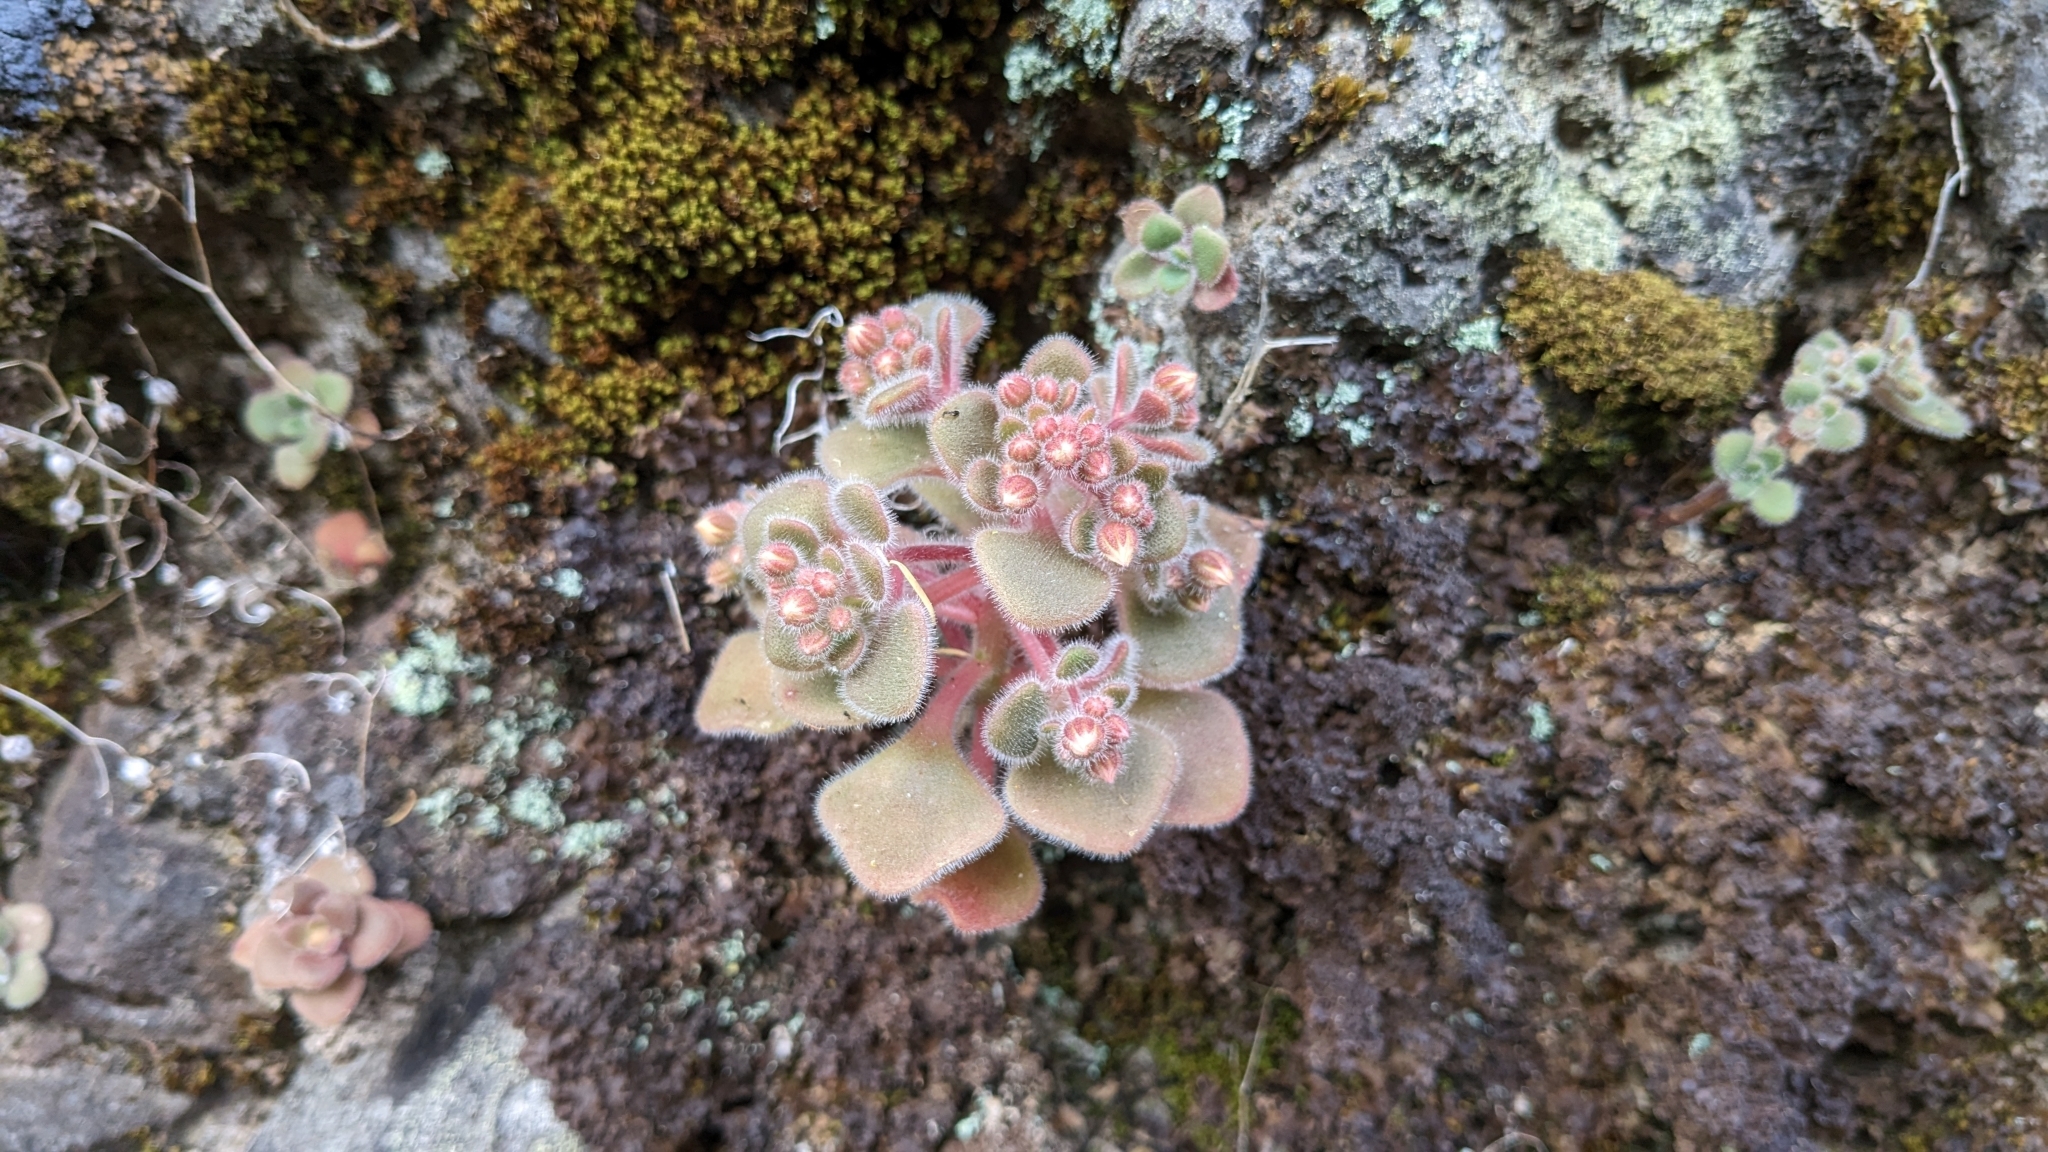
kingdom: Plantae
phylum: Tracheophyta
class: Magnoliopsida
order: Saxifragales
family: Crassulaceae
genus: Aichryson
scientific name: Aichryson villosum
